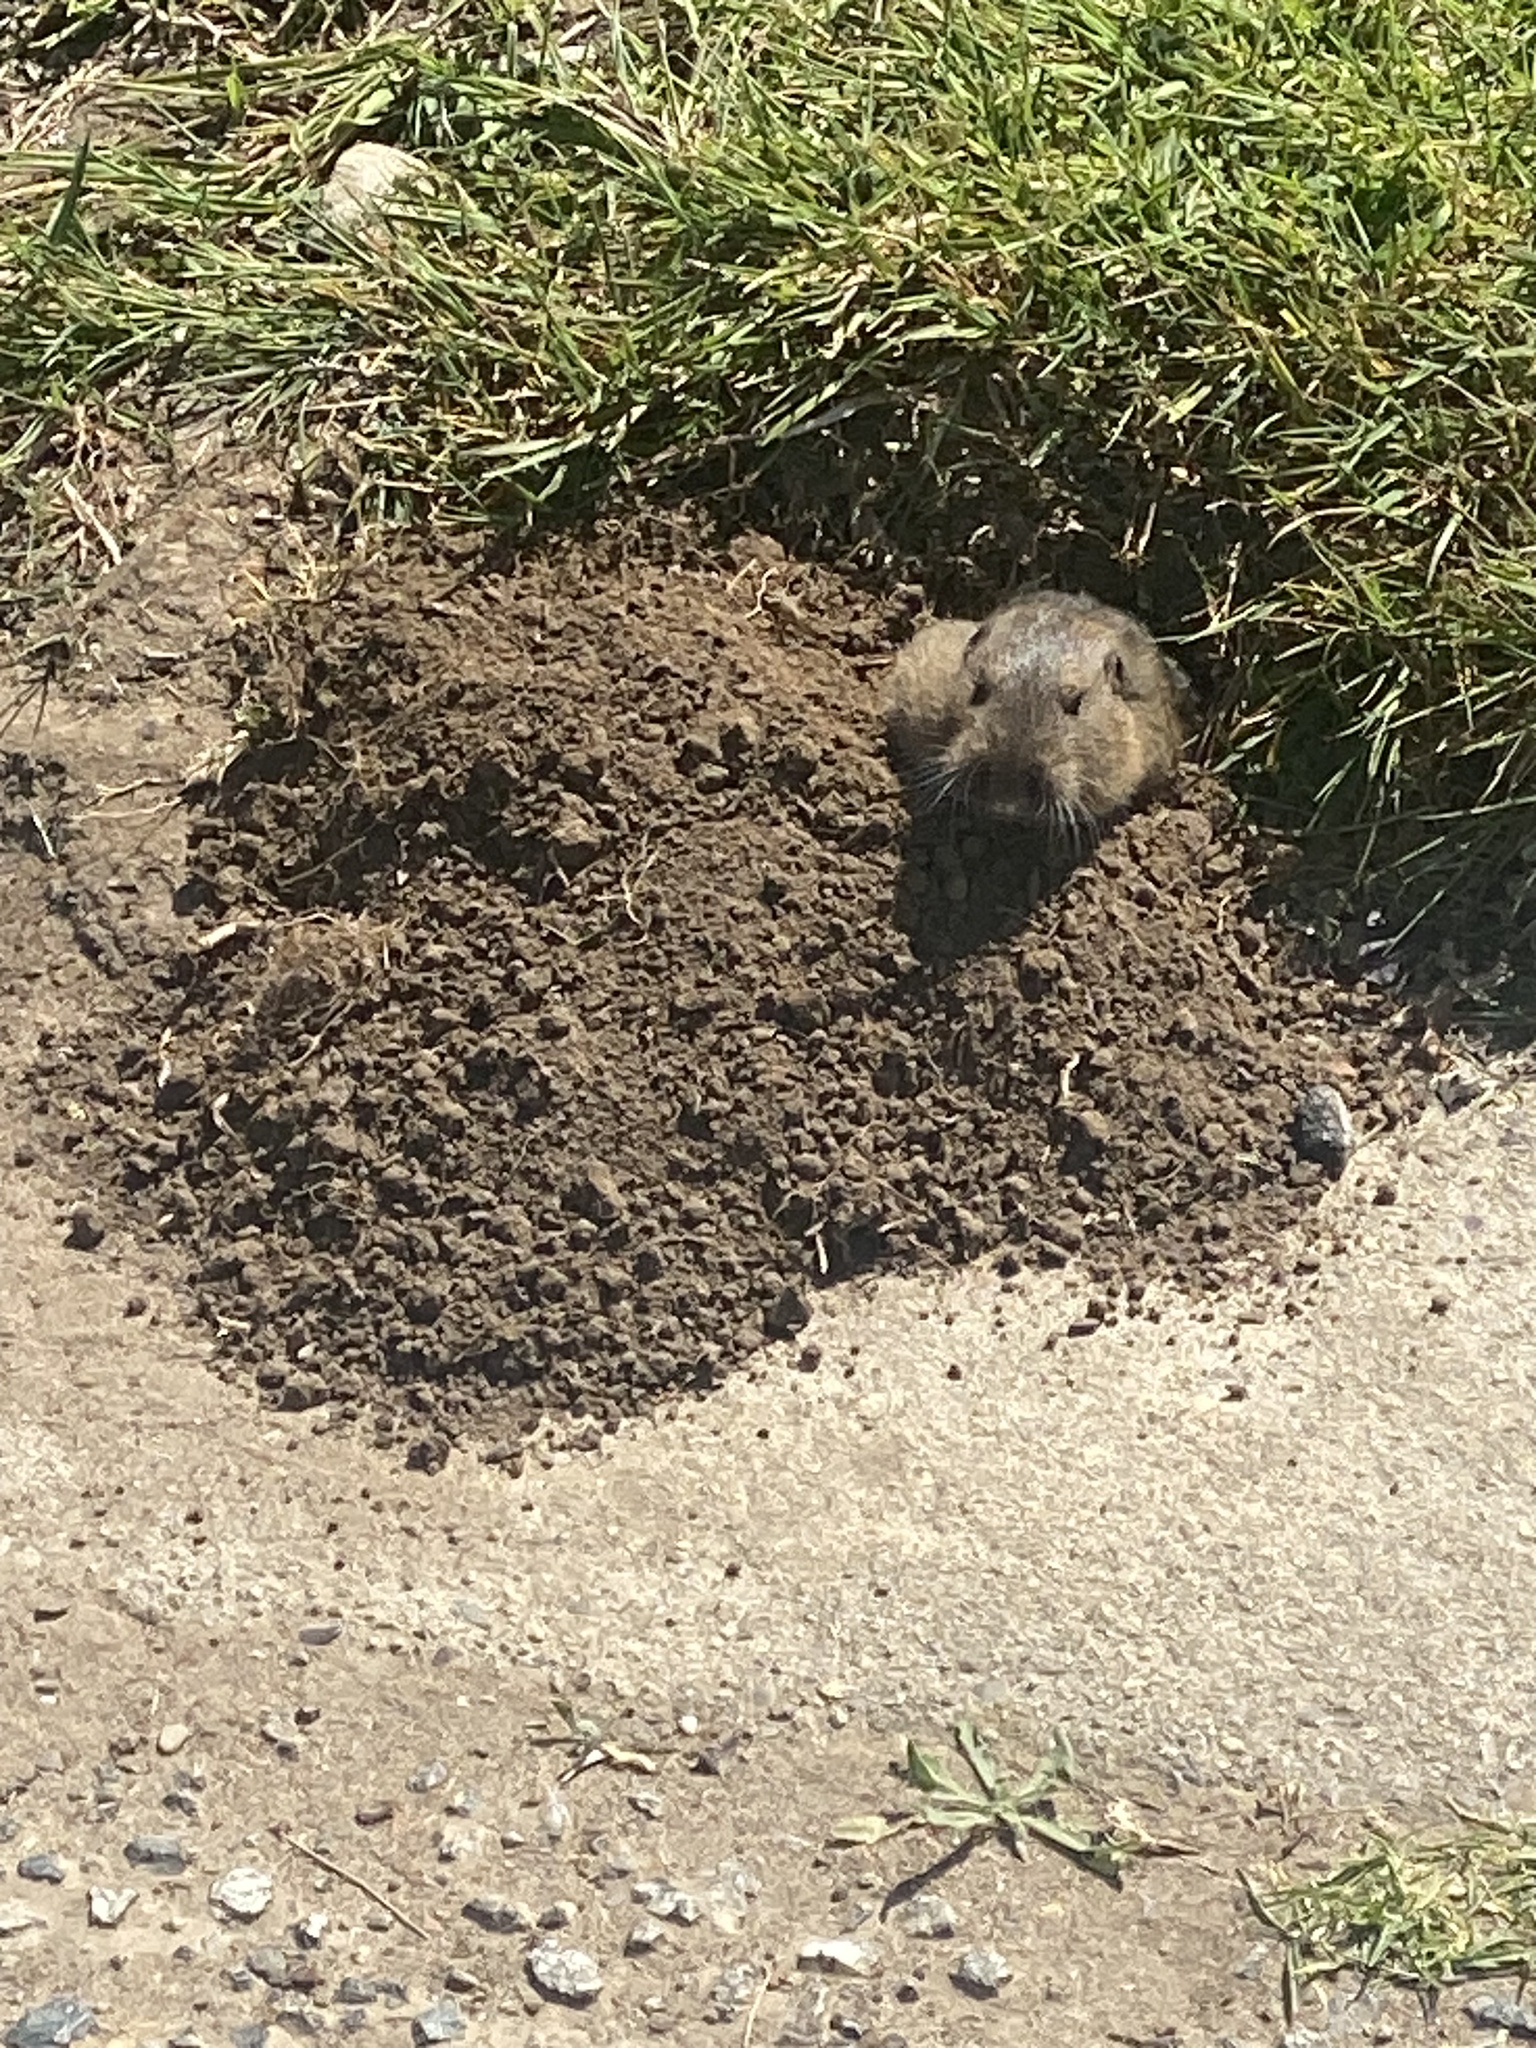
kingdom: Animalia
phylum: Chordata
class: Mammalia
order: Rodentia
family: Geomyidae
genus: Thomomys
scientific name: Thomomys bottae
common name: Botta's pocket gopher
